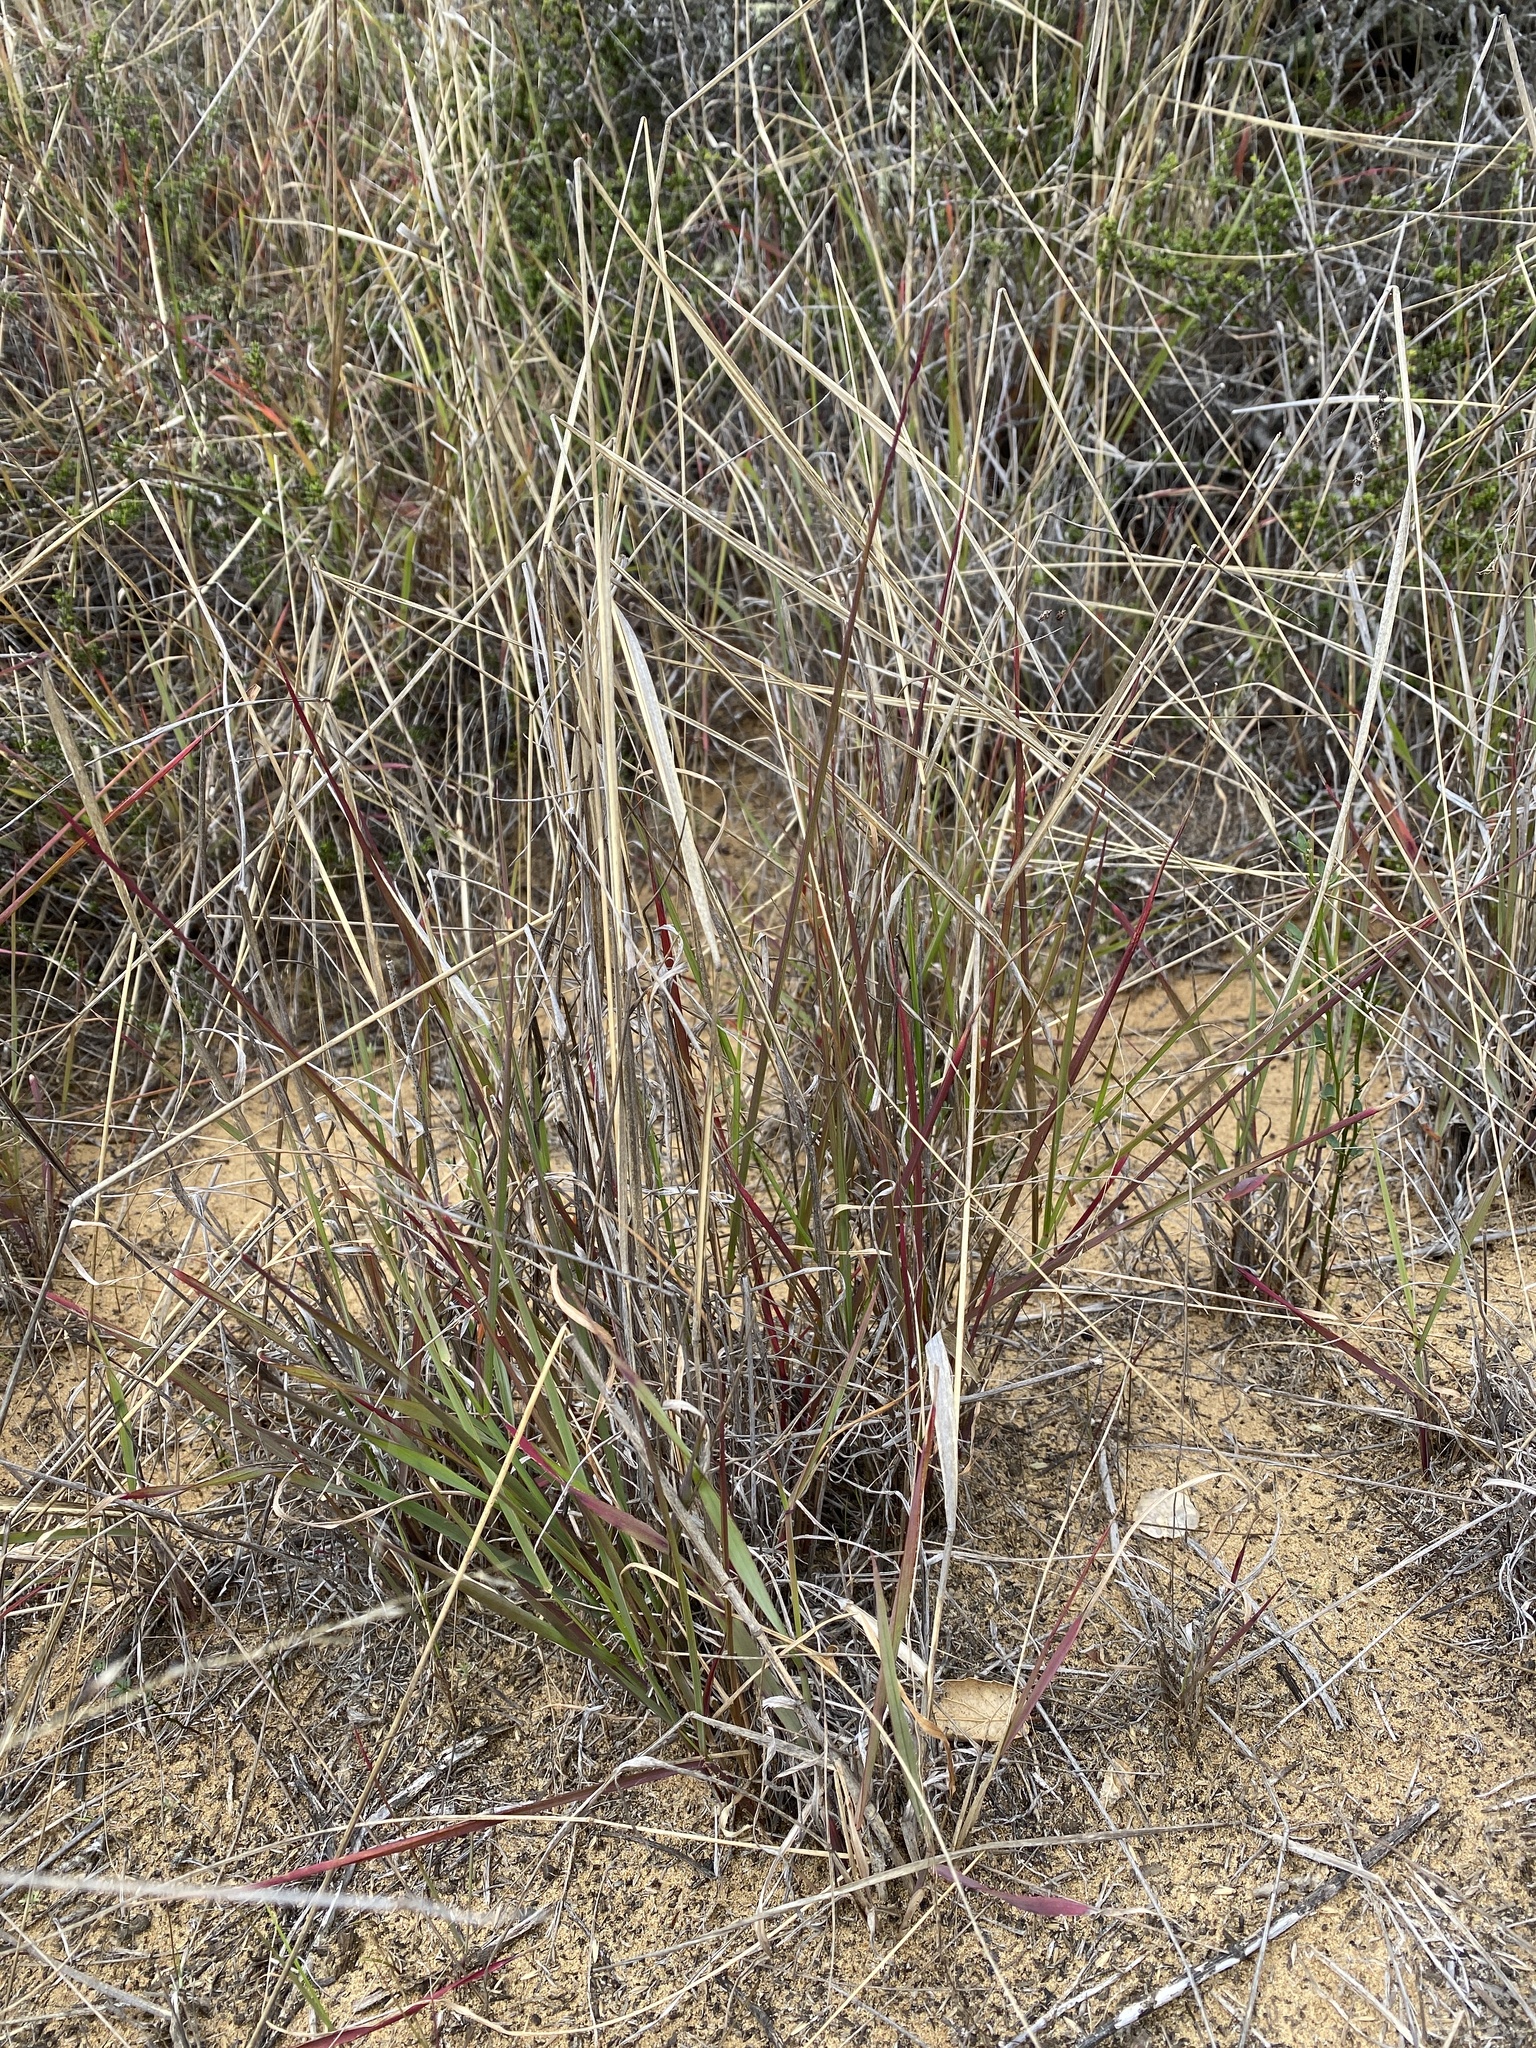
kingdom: Plantae
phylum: Tracheophyta
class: Liliopsida
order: Poales
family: Poaceae
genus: Ehrharta
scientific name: Ehrharta calycina
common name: Perennial veldtgrass
